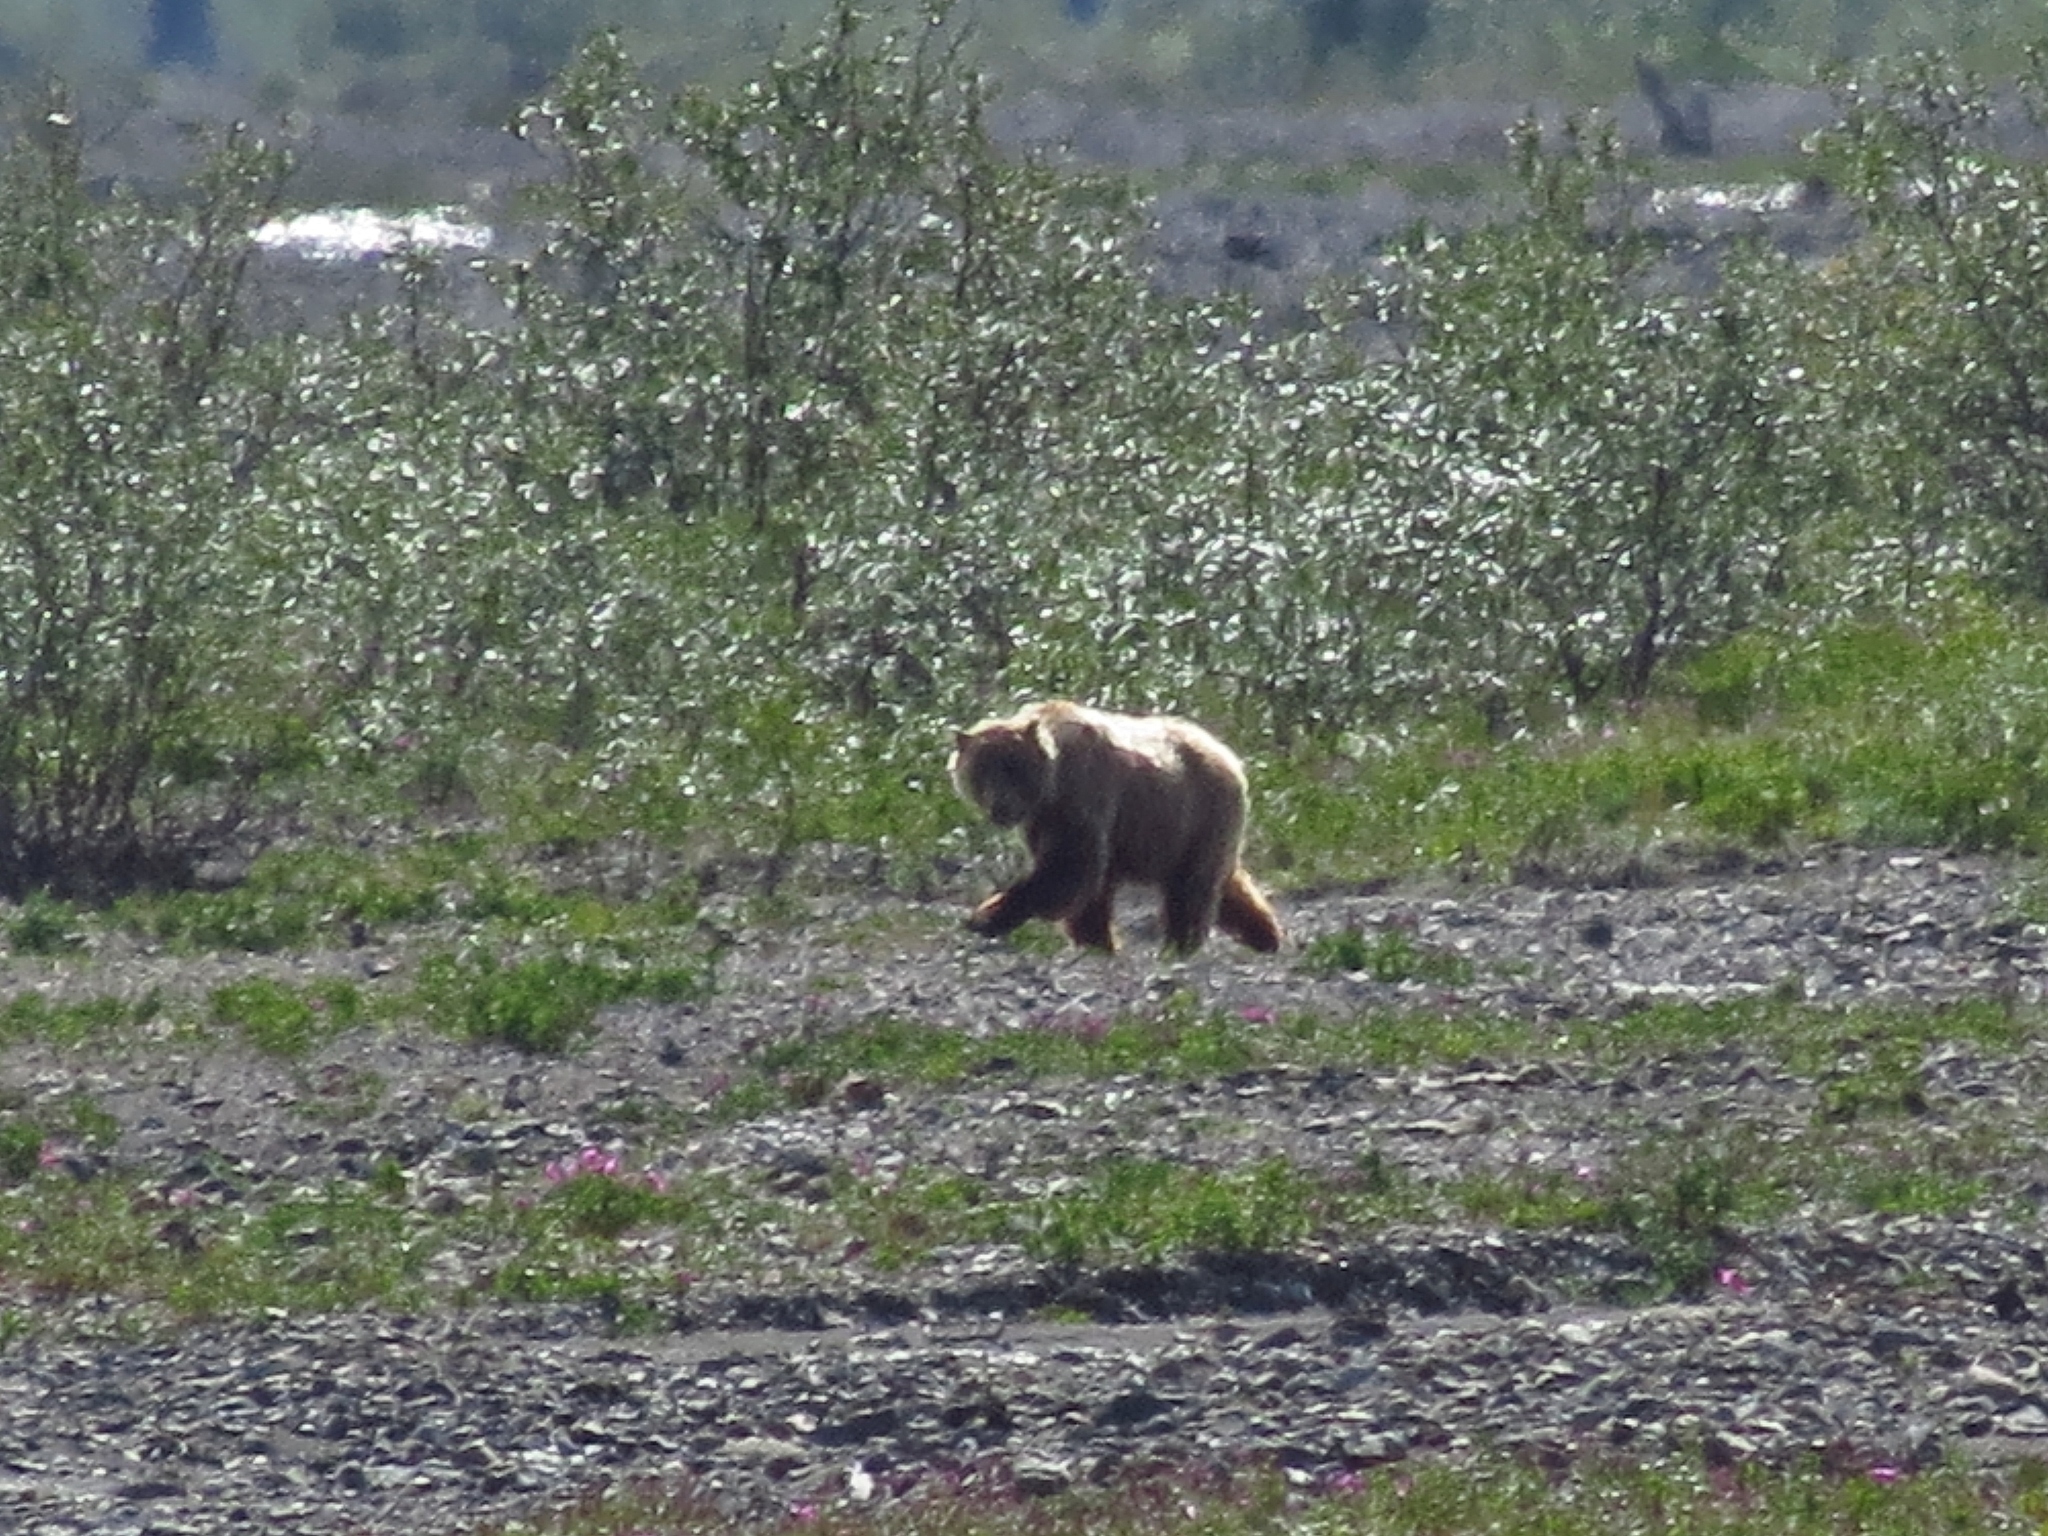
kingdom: Animalia
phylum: Chordata
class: Mammalia
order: Carnivora
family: Ursidae
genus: Ursus
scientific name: Ursus arctos
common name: Brown bear
